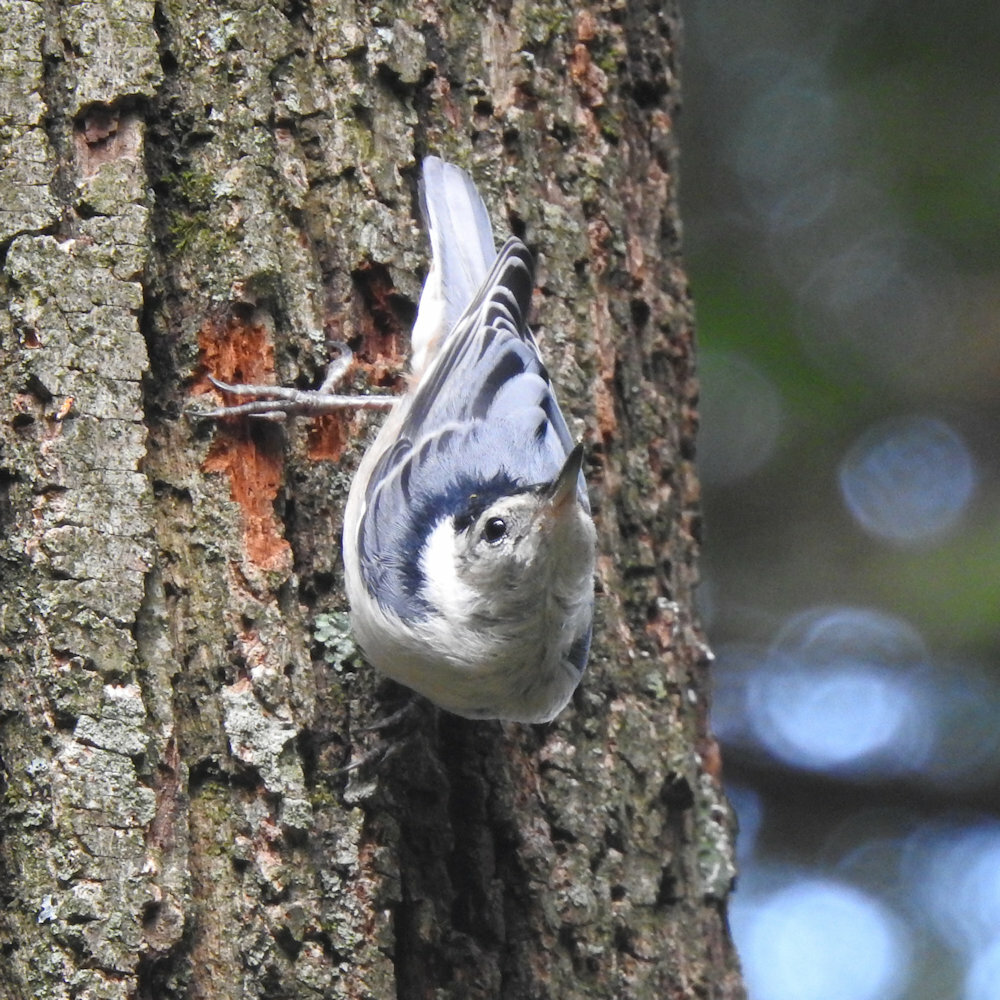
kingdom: Animalia
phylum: Chordata
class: Aves
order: Passeriformes
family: Sittidae
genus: Sitta
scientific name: Sitta carolinensis
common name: White-breasted nuthatch
